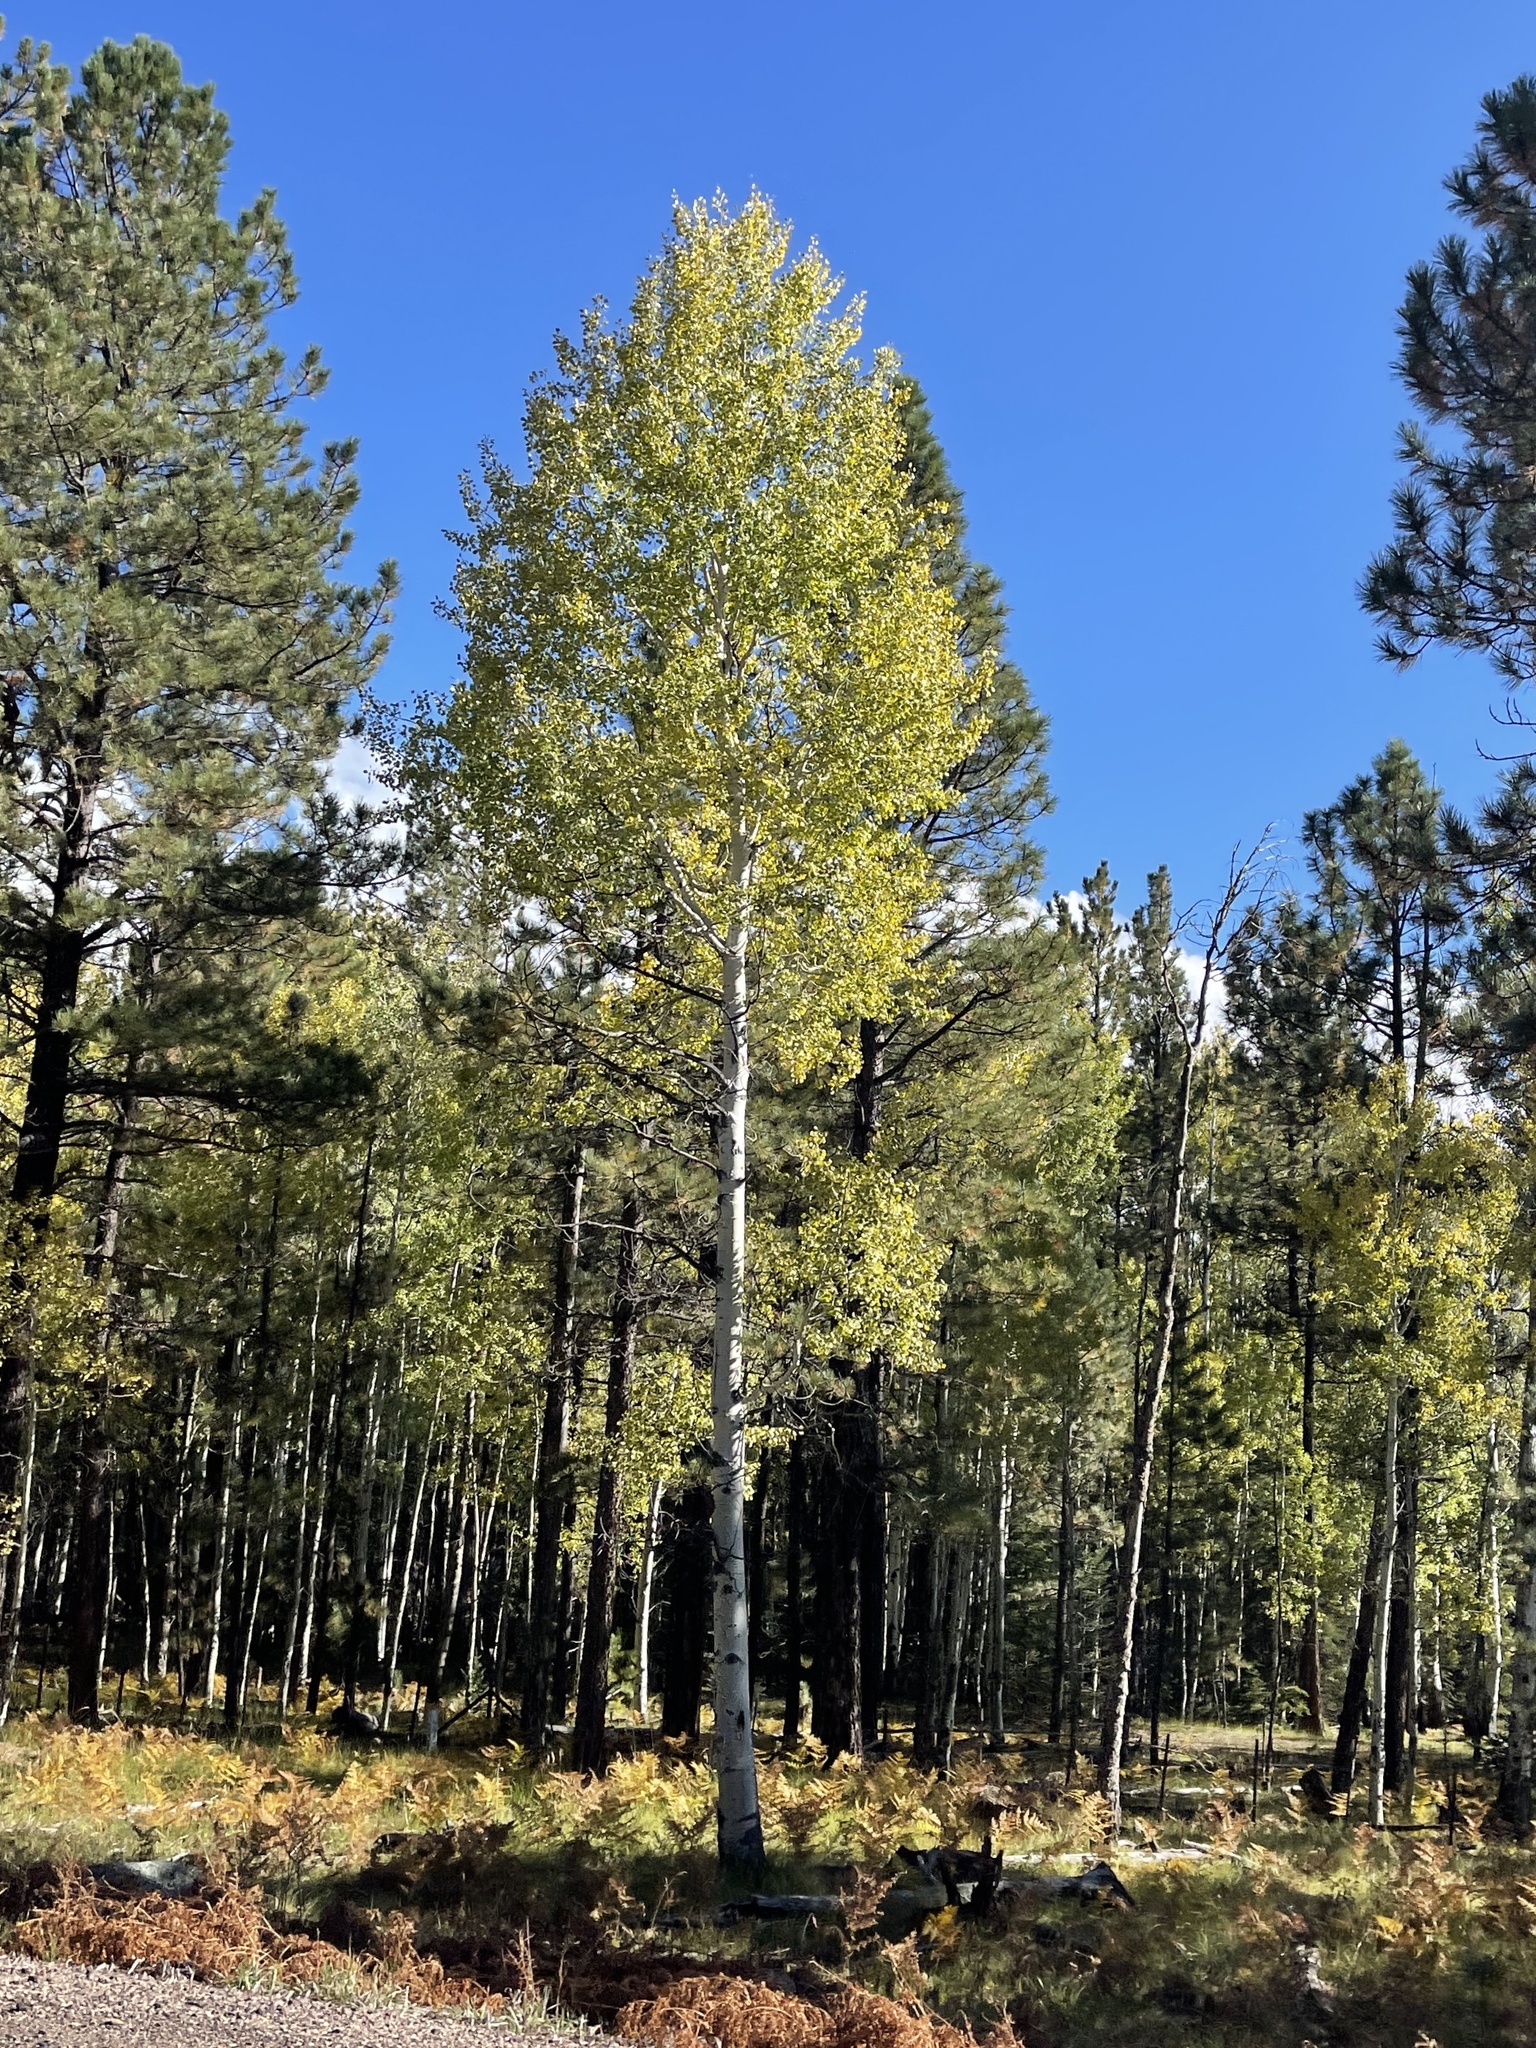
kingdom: Plantae
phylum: Tracheophyta
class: Magnoliopsida
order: Malpighiales
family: Salicaceae
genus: Populus
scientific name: Populus tremuloides
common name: Quaking aspen
